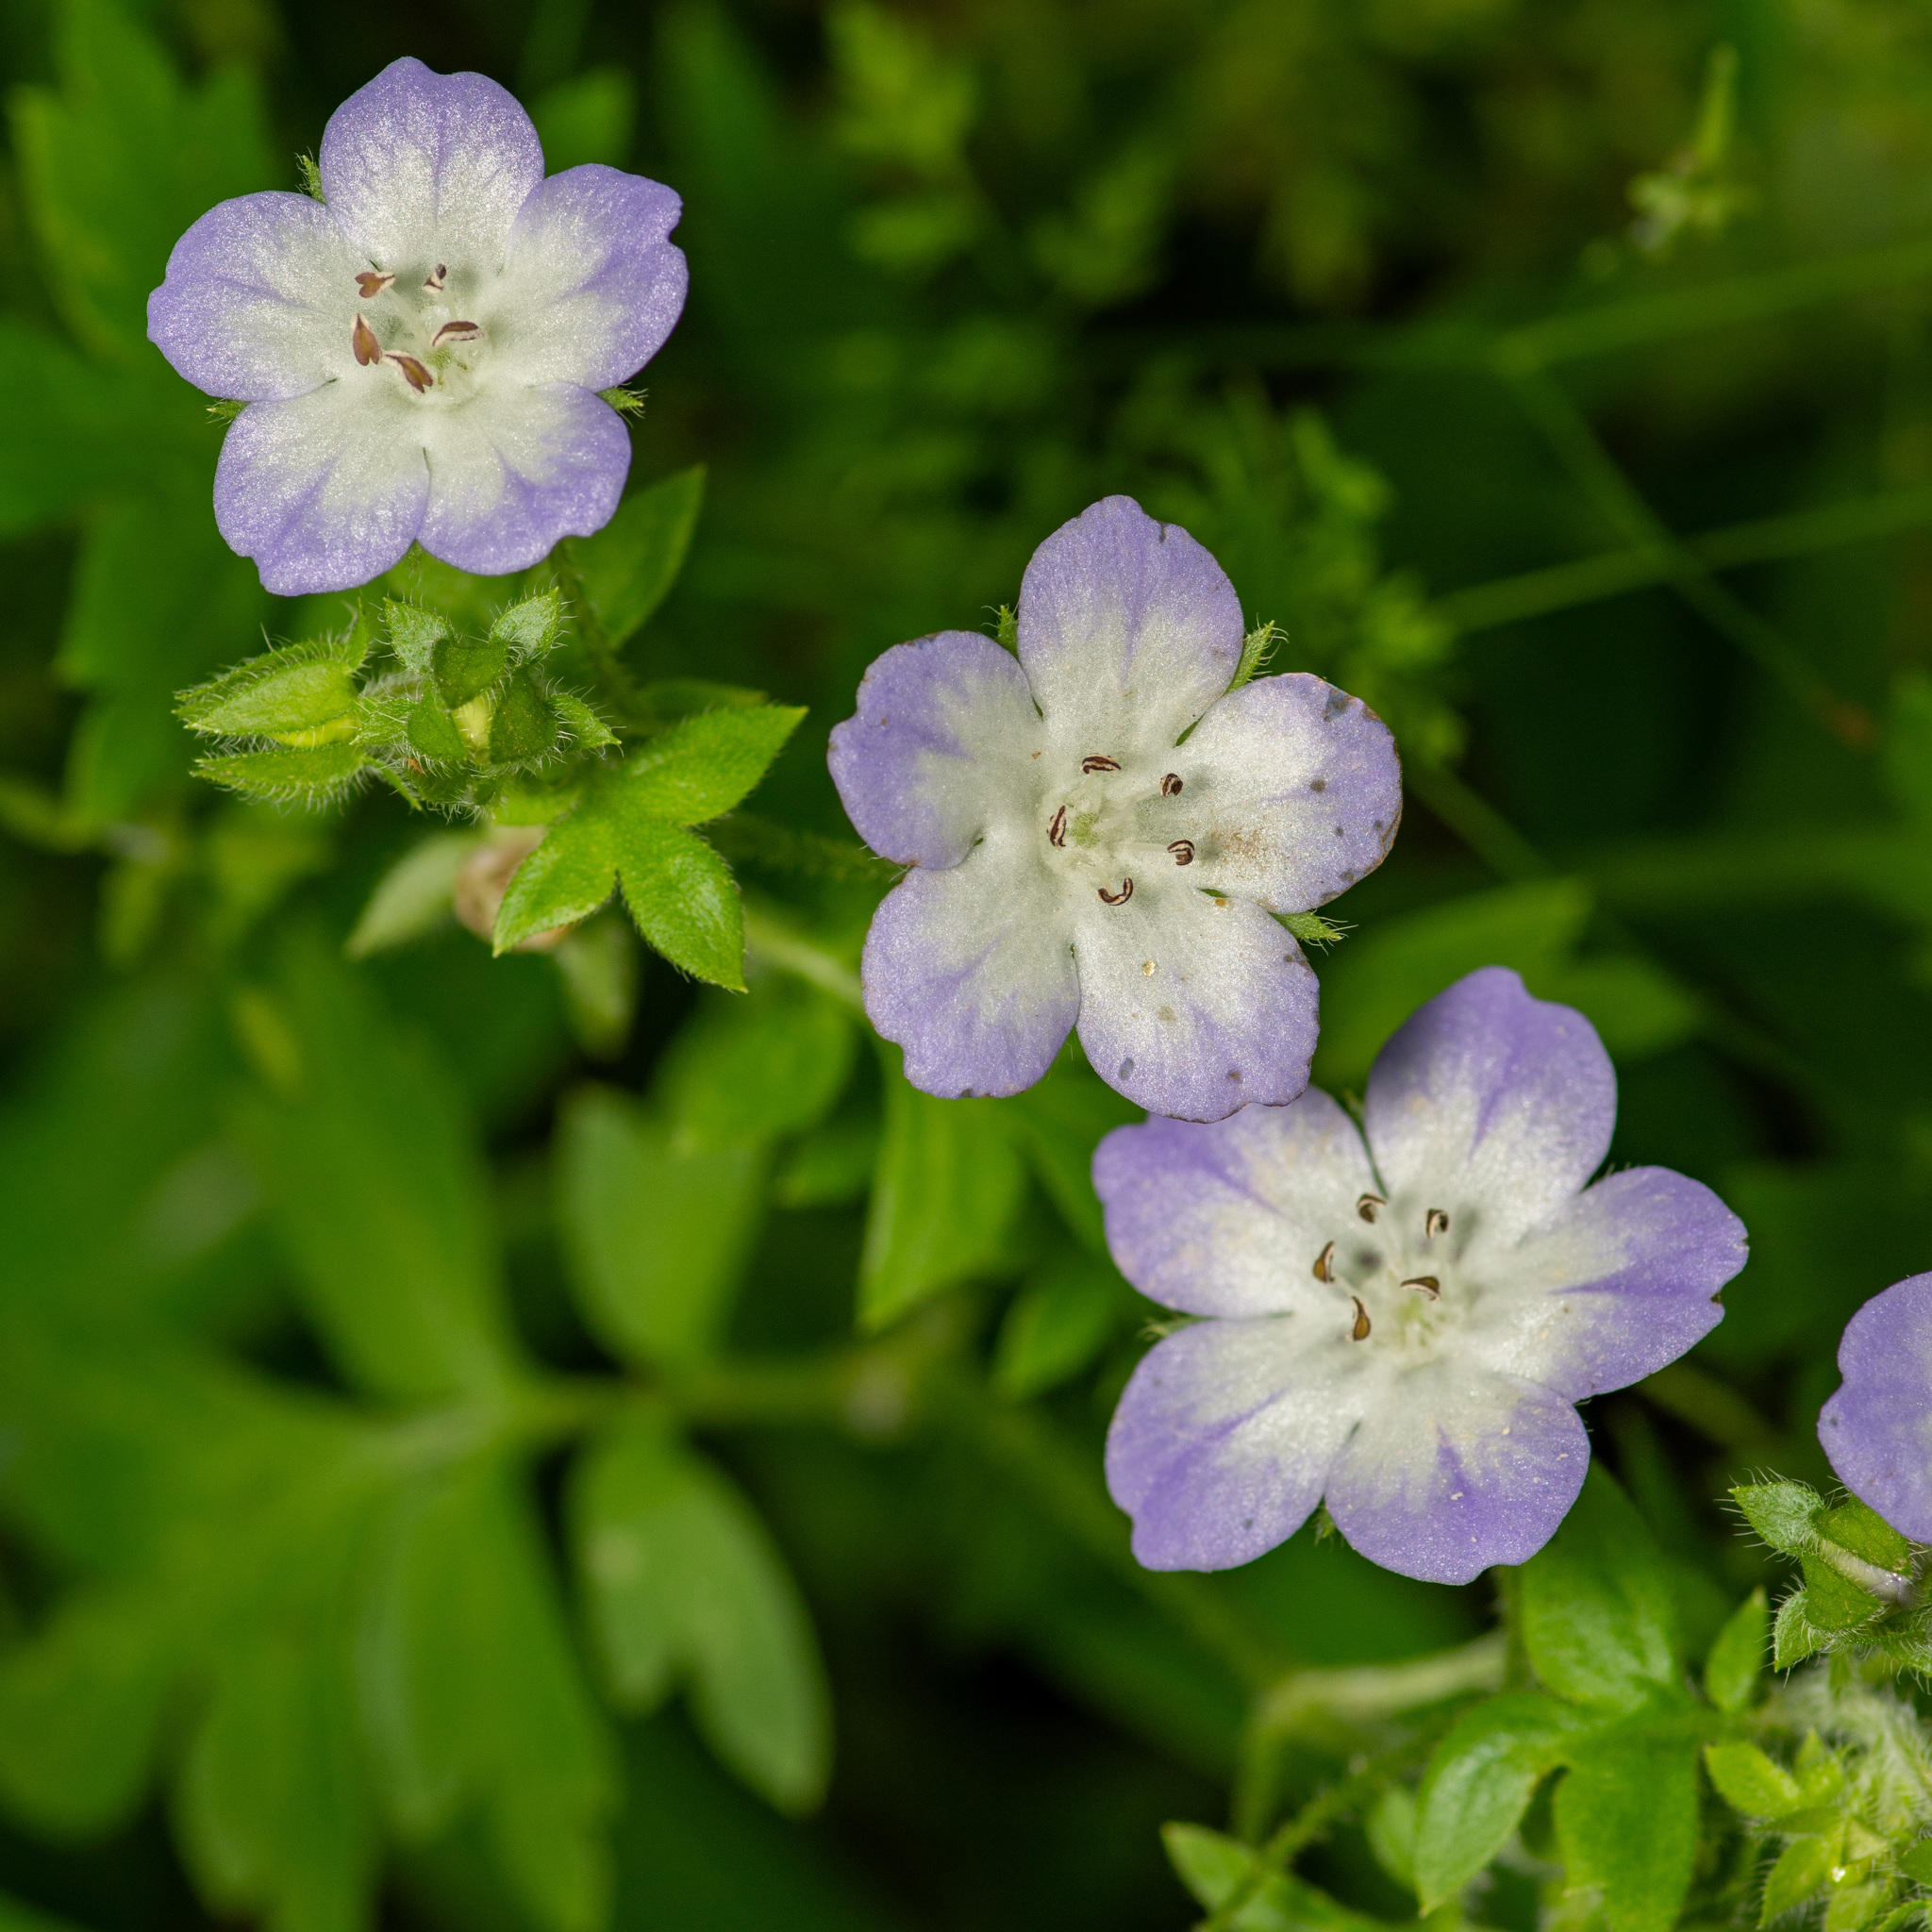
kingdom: Plantae
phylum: Tracheophyta
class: Magnoliopsida
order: Boraginales
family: Hydrophyllaceae
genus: Nemophila
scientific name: Nemophila phacelioides
